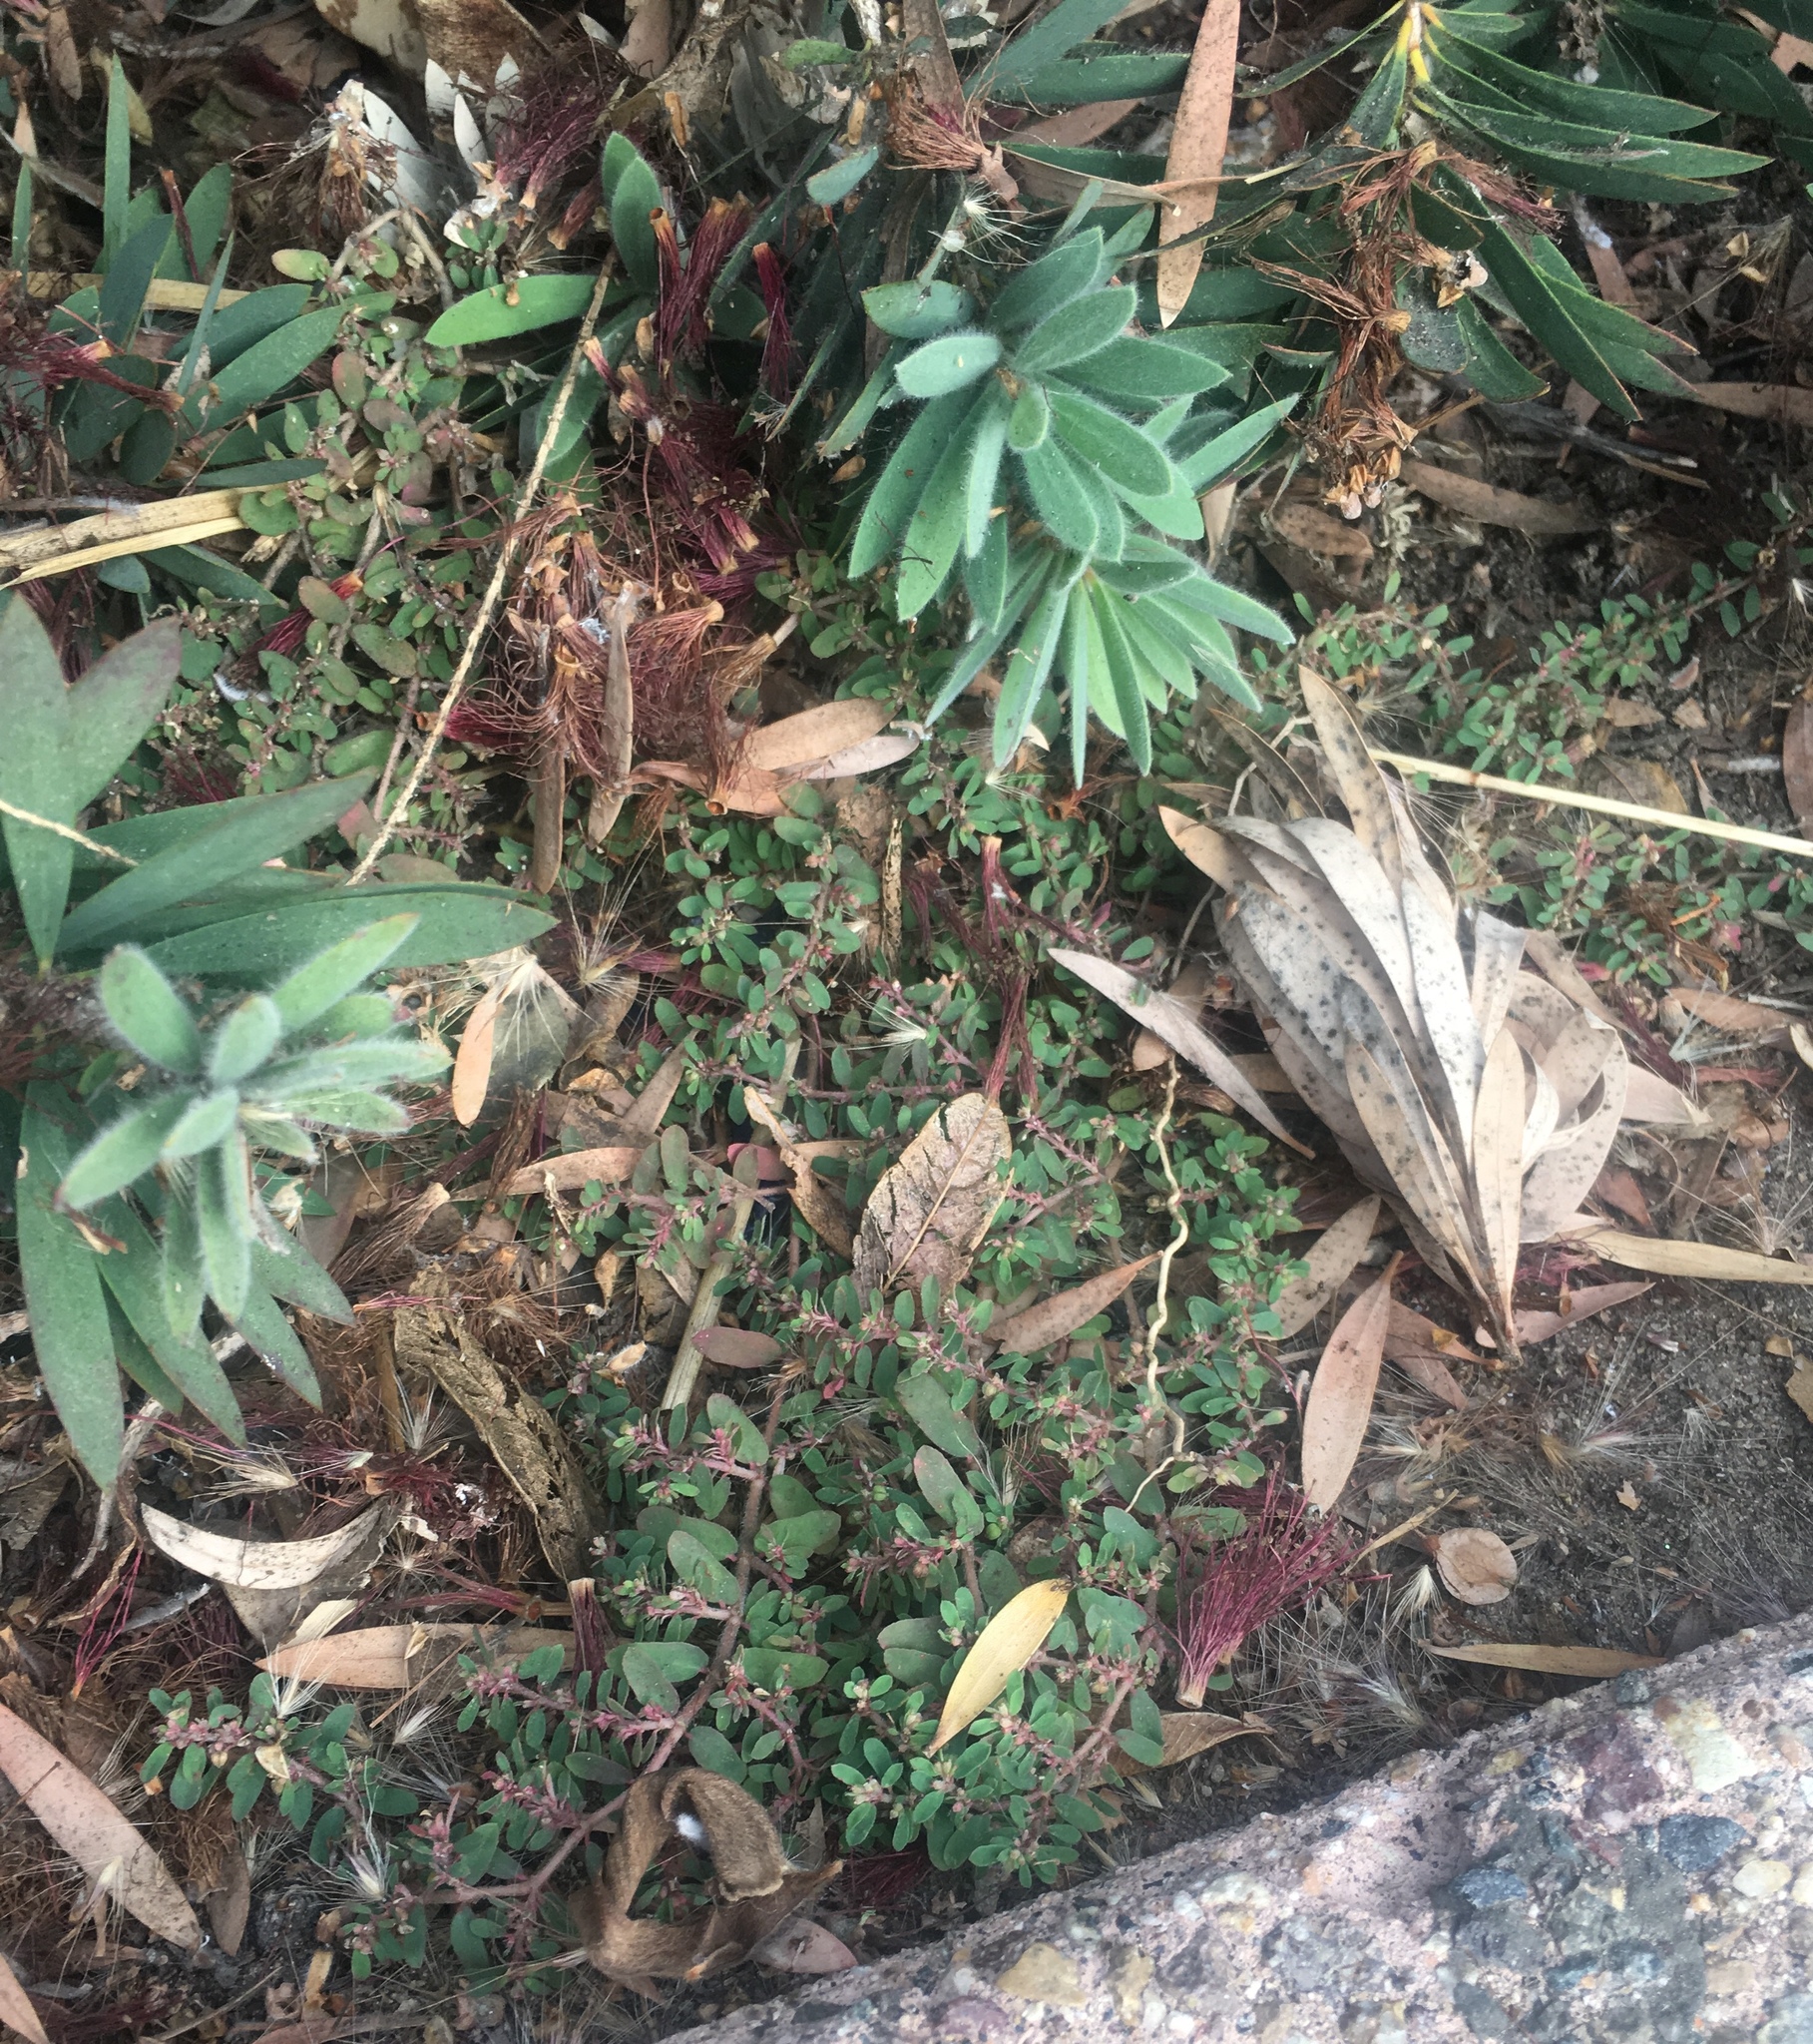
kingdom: Plantae
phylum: Tracheophyta
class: Magnoliopsida
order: Malpighiales
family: Euphorbiaceae
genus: Euphorbia
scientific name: Euphorbia maculata
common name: Spotted spurge
